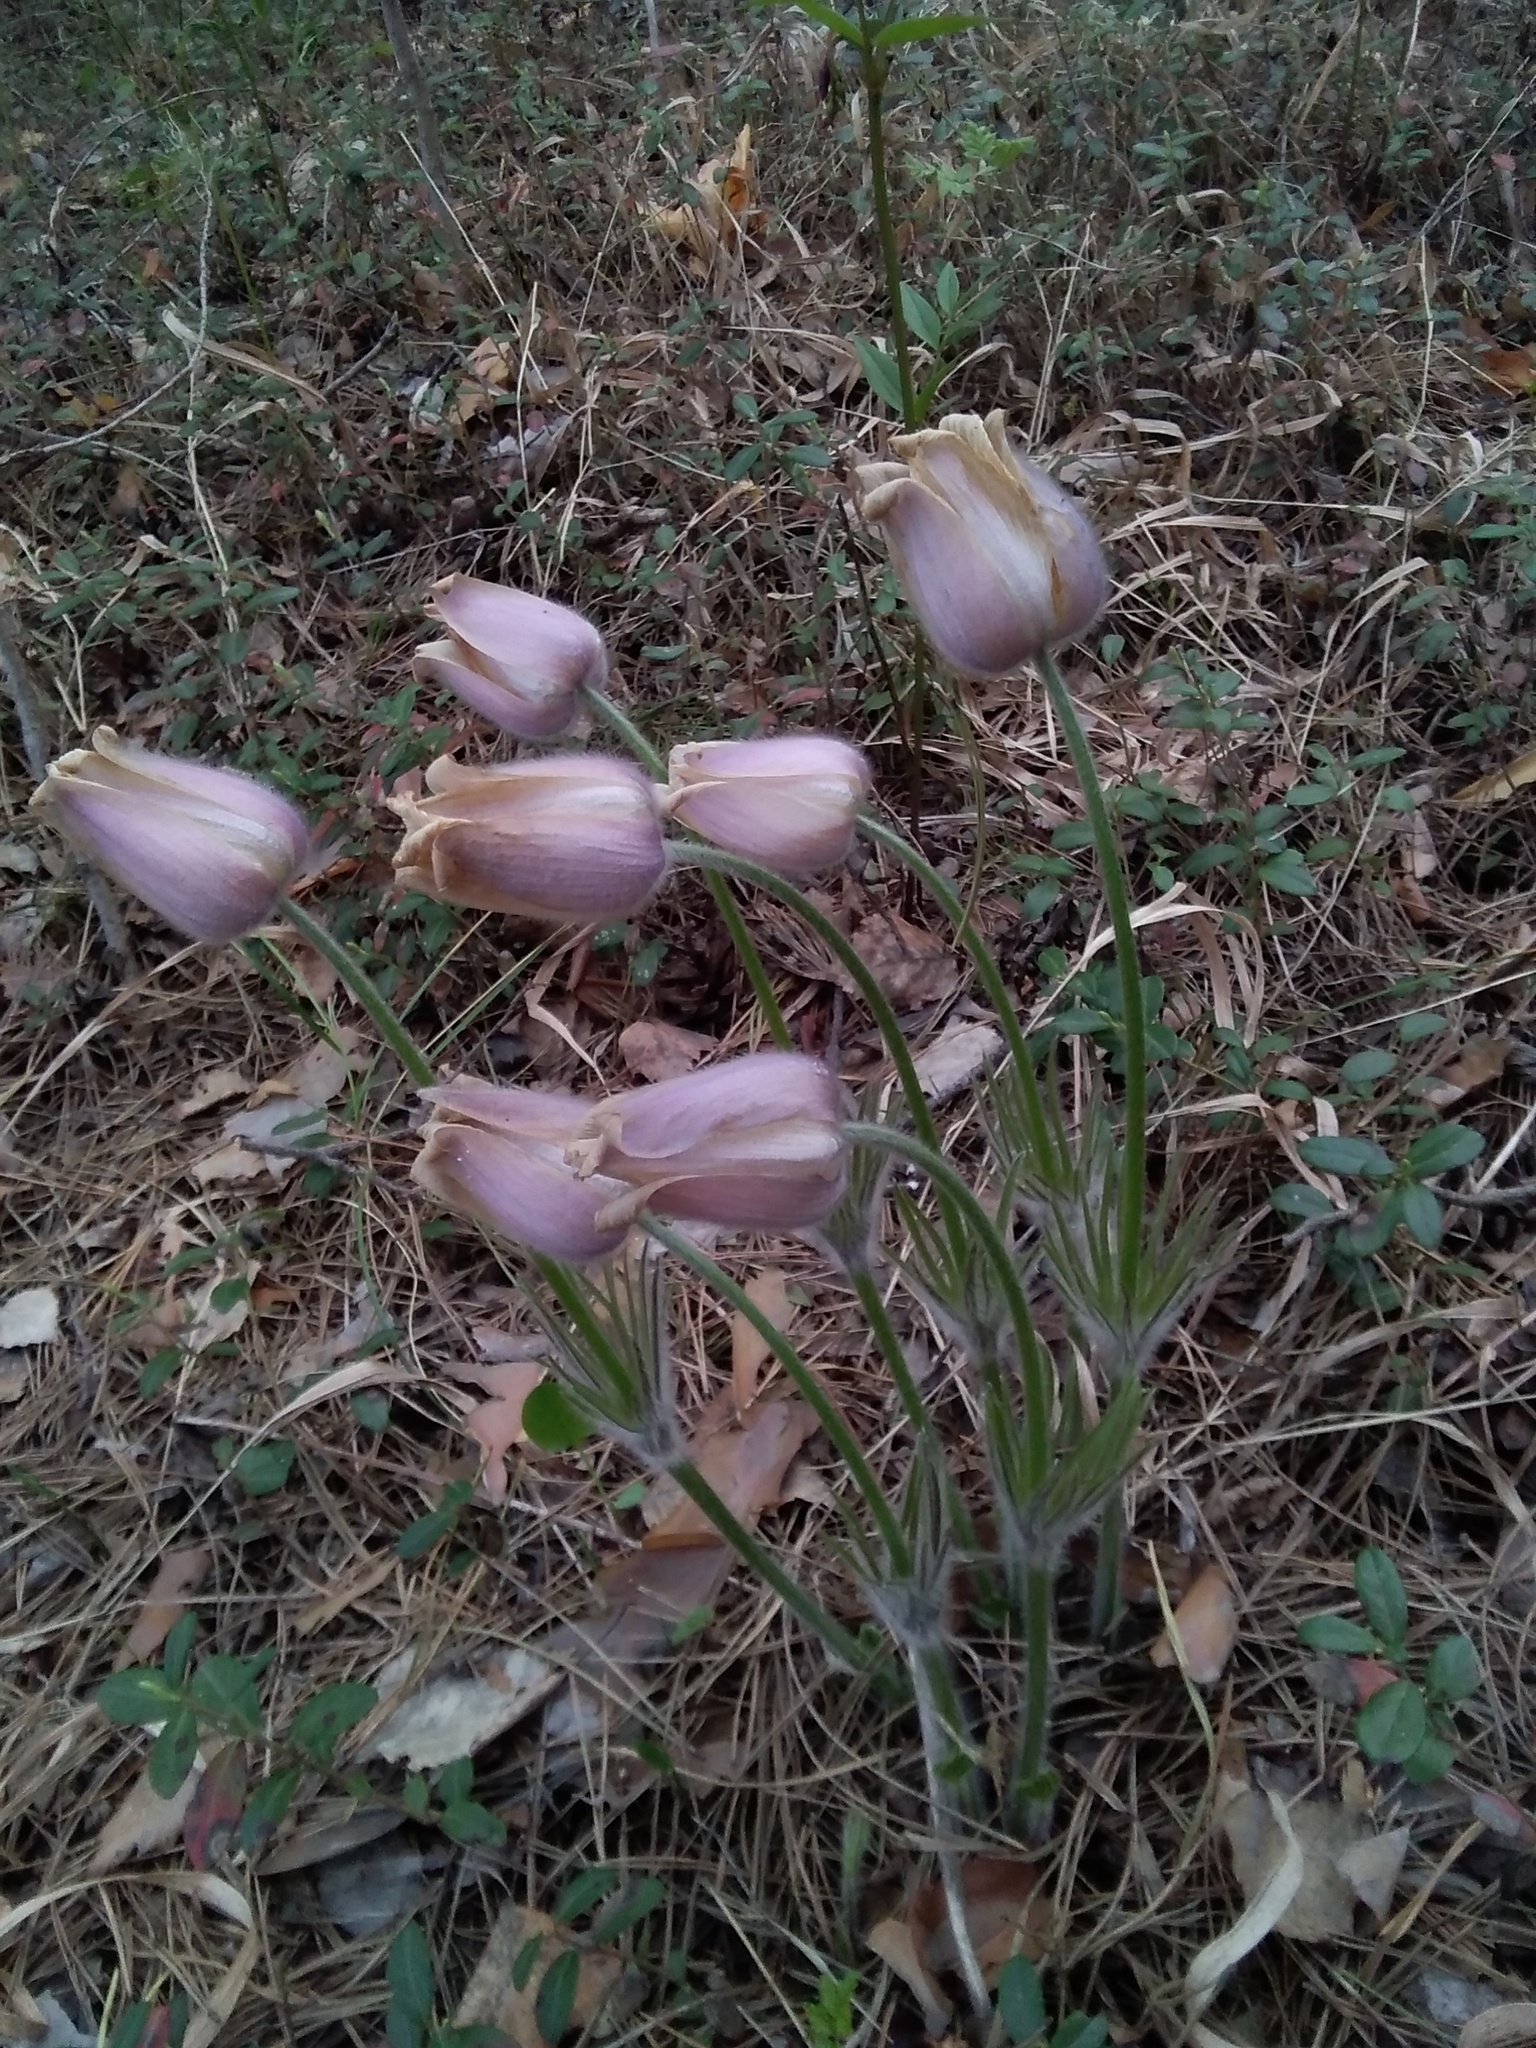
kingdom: Plantae
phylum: Tracheophyta
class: Magnoliopsida
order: Ranunculales
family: Ranunculaceae
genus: Pulsatilla
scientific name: Pulsatilla patens
